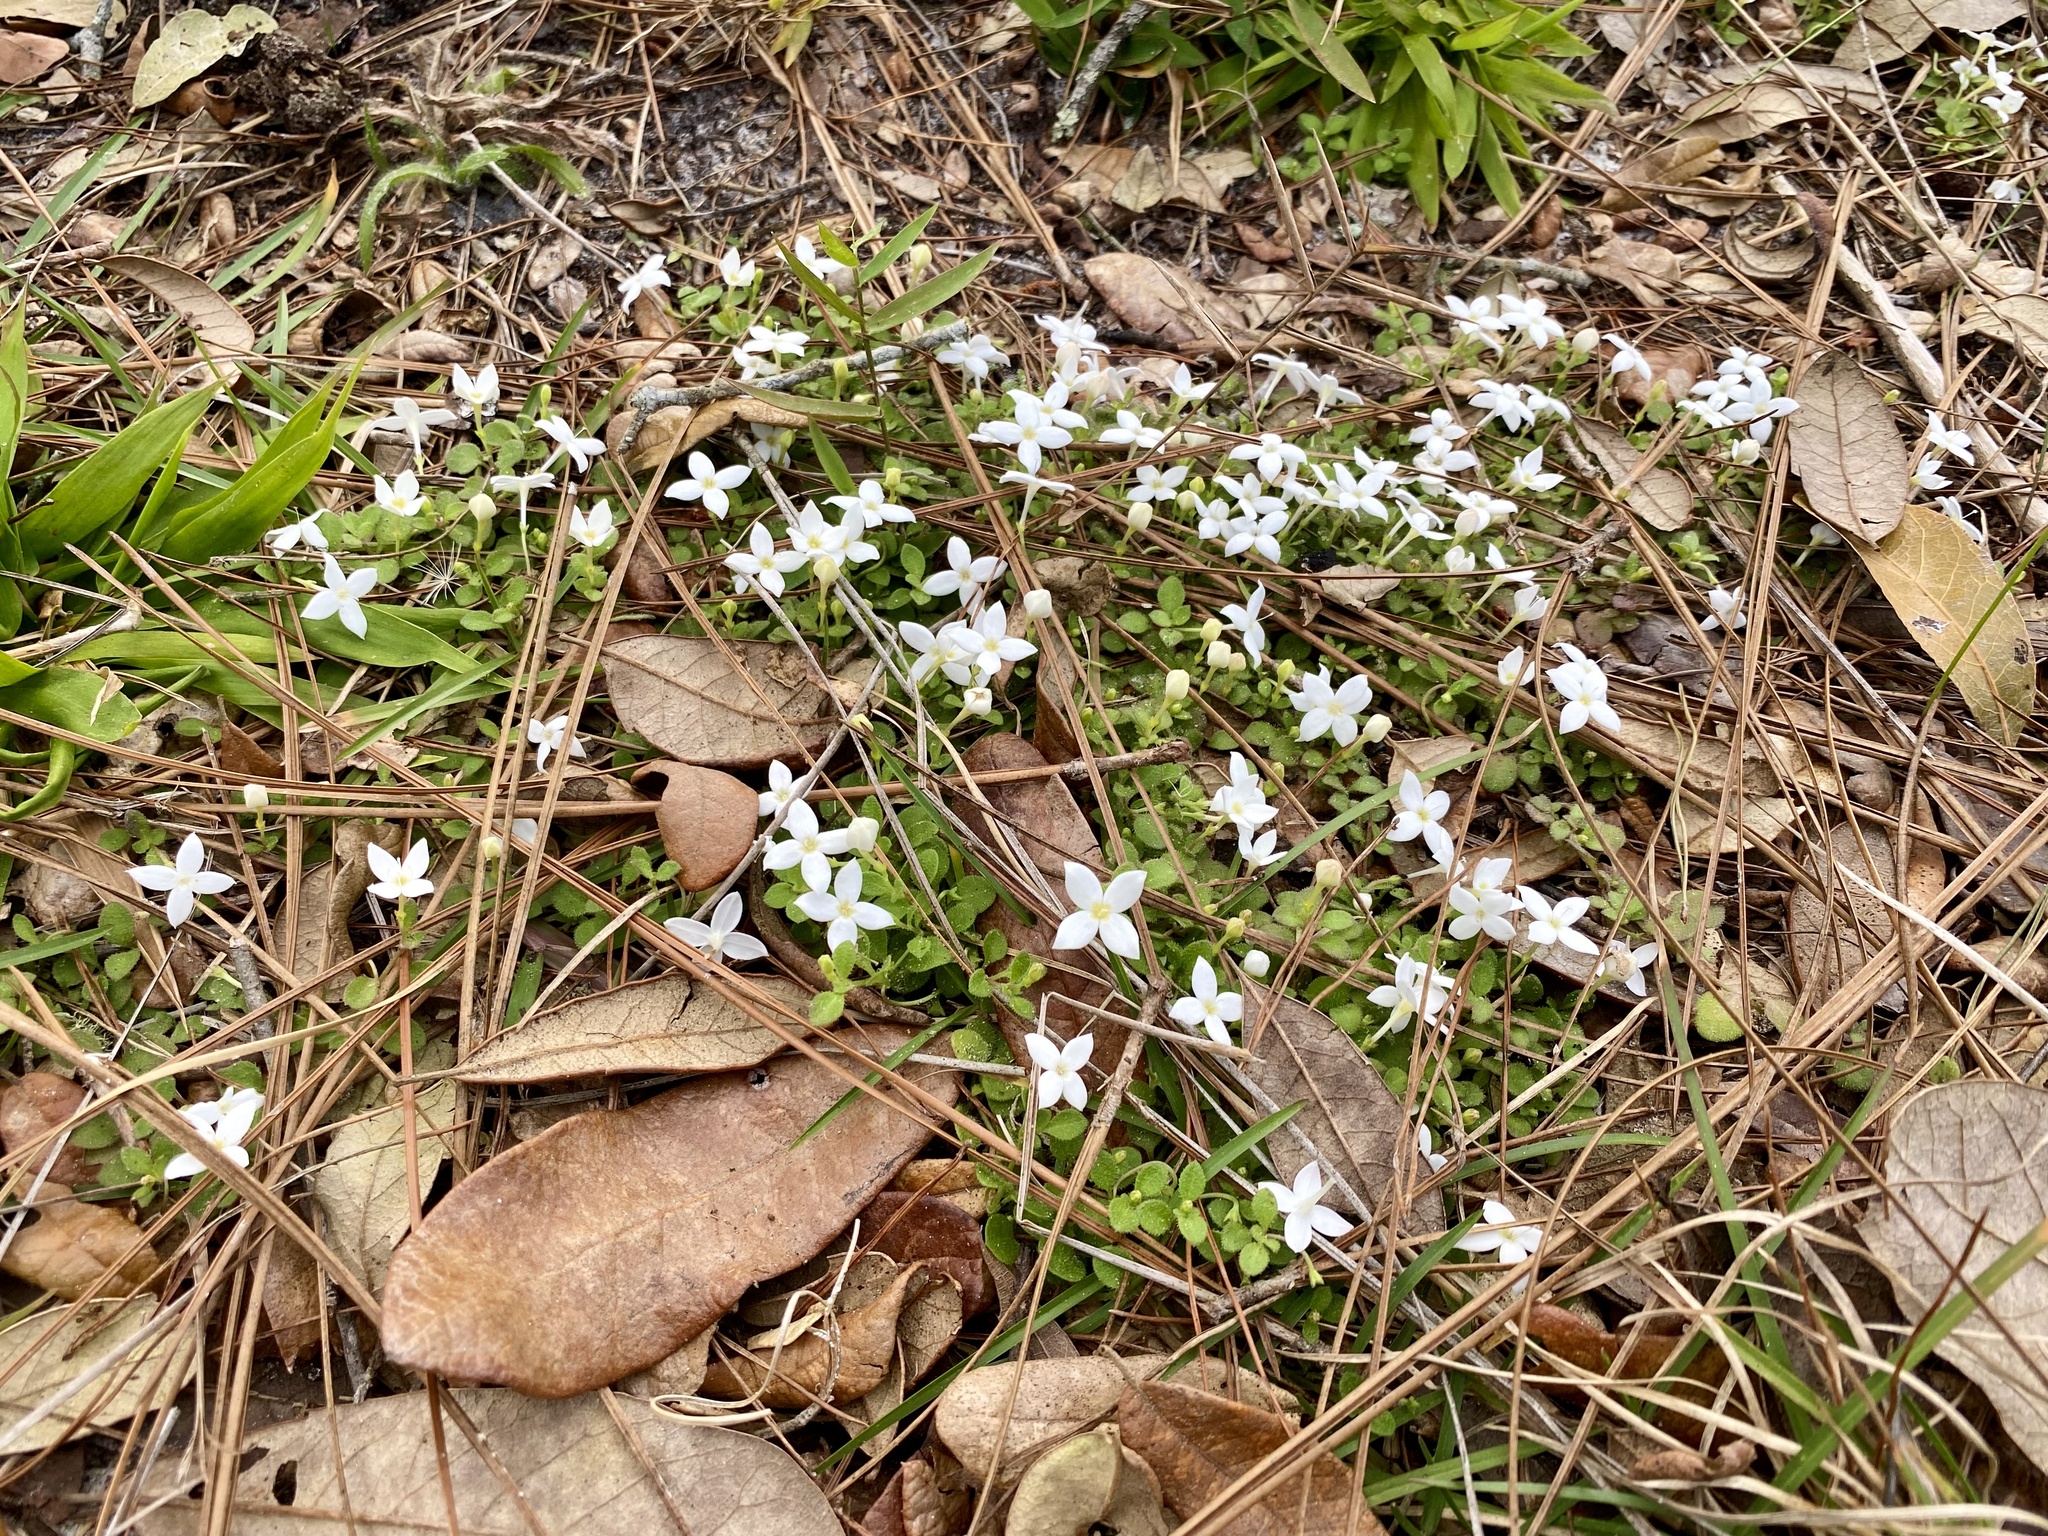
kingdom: Plantae
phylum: Tracheophyta
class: Magnoliopsida
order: Gentianales
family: Rubiaceae
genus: Houstonia
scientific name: Houstonia procumbens
